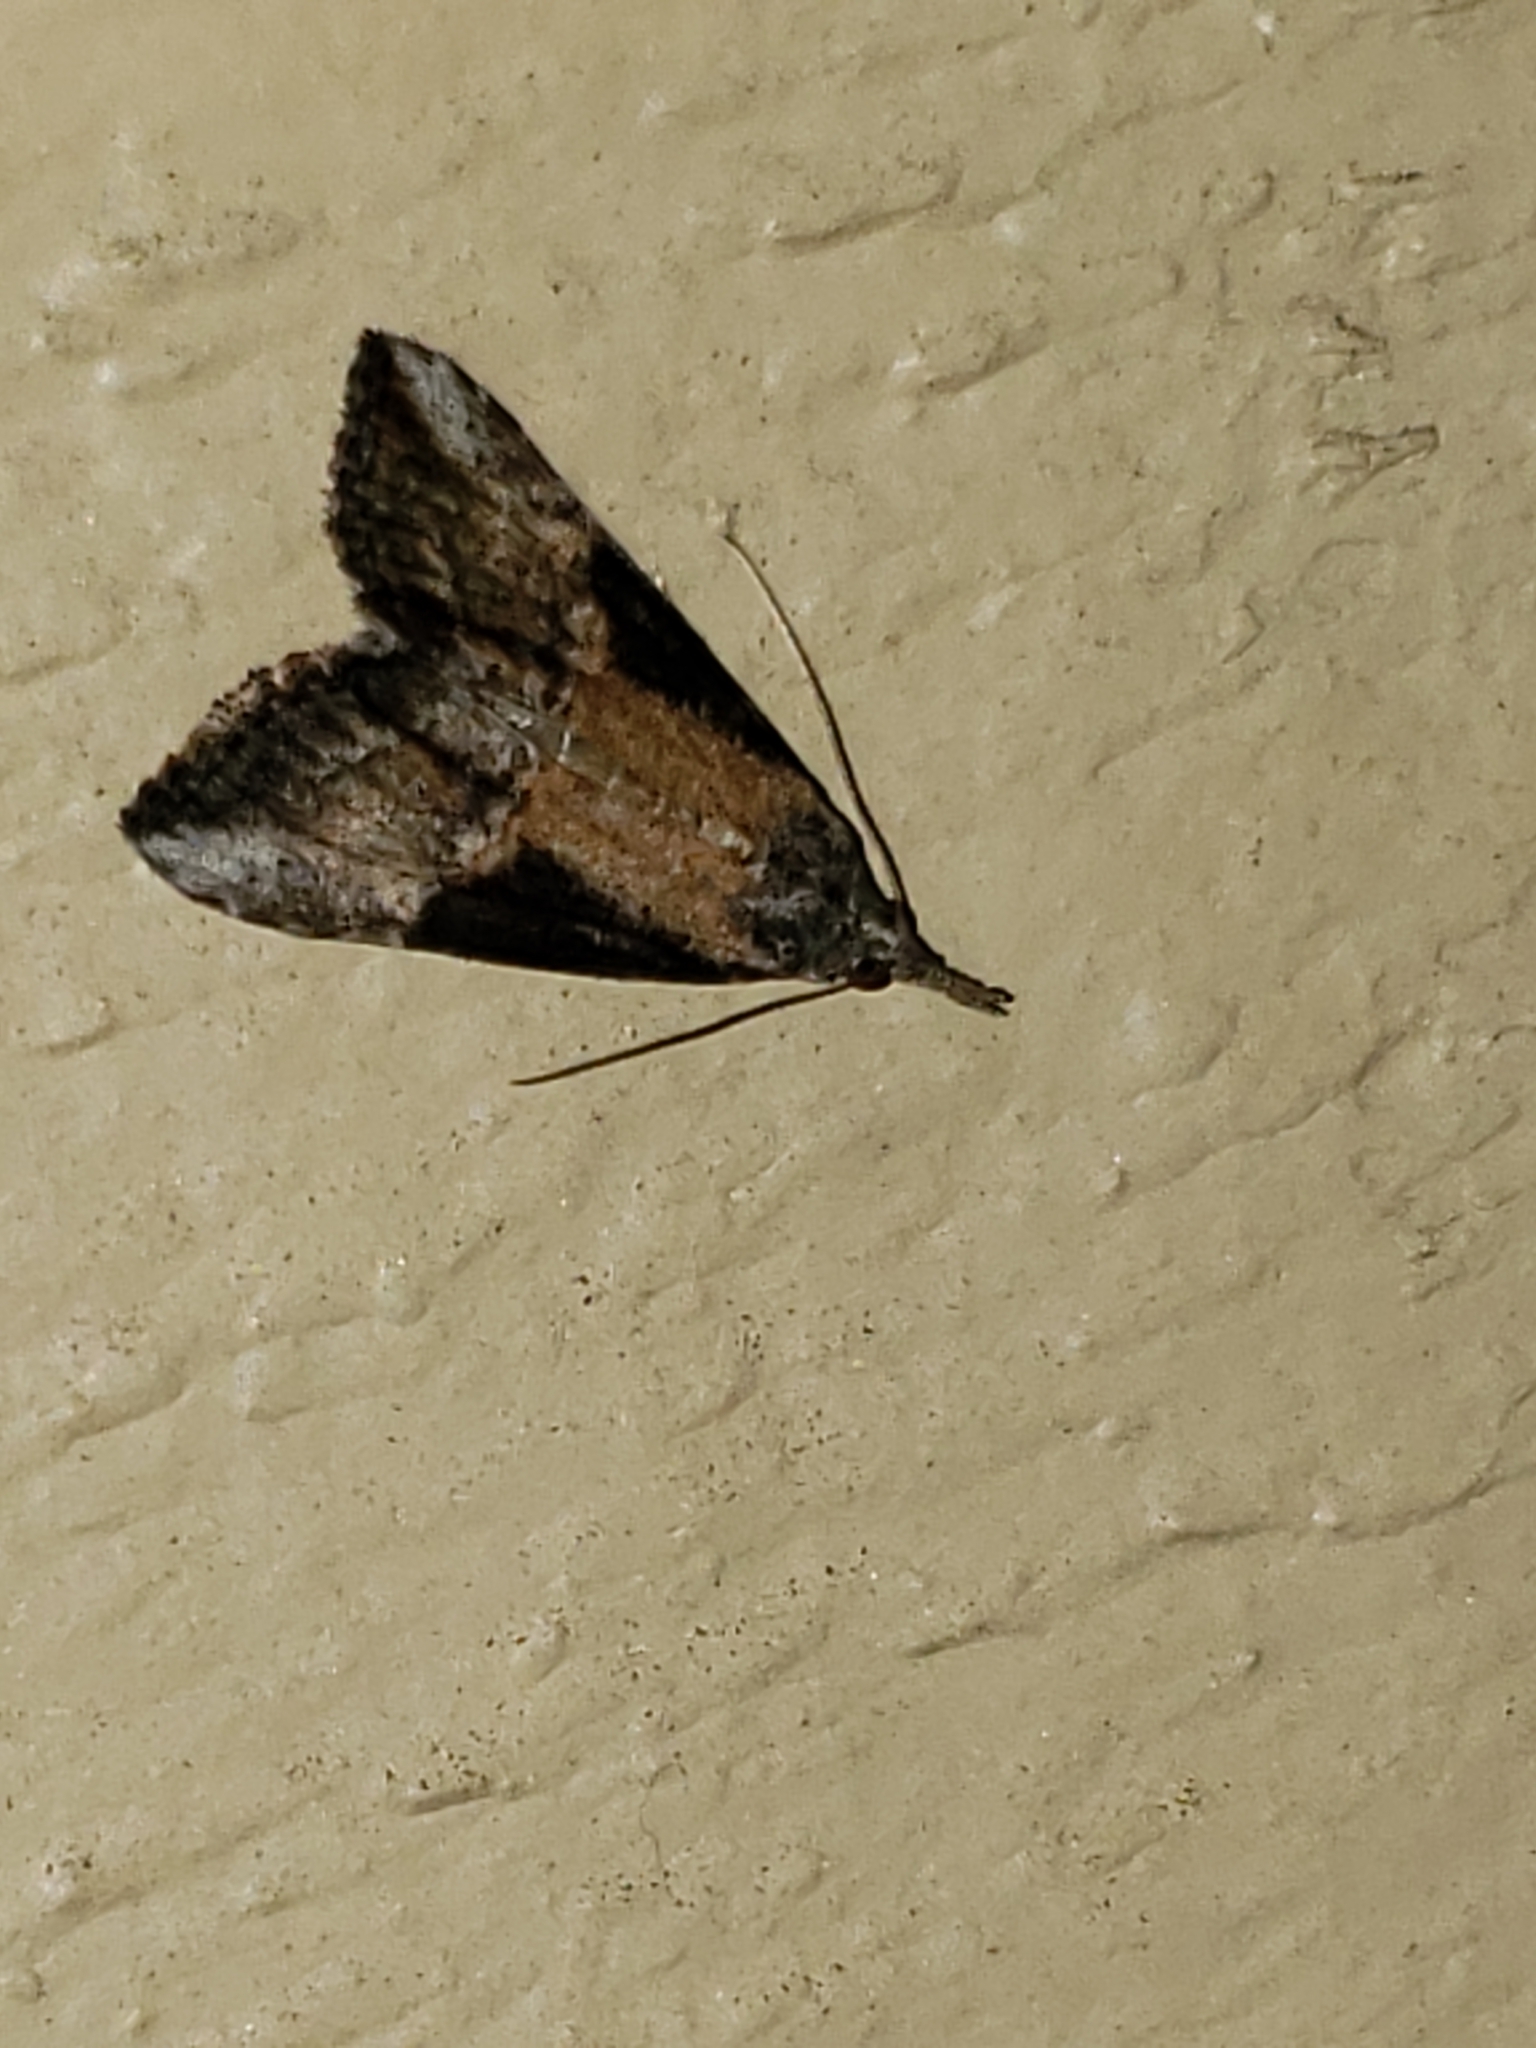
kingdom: Animalia
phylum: Arthropoda
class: Insecta
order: Lepidoptera
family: Erebidae
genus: Hypena
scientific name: Hypena scabra
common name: Green cloverworm
